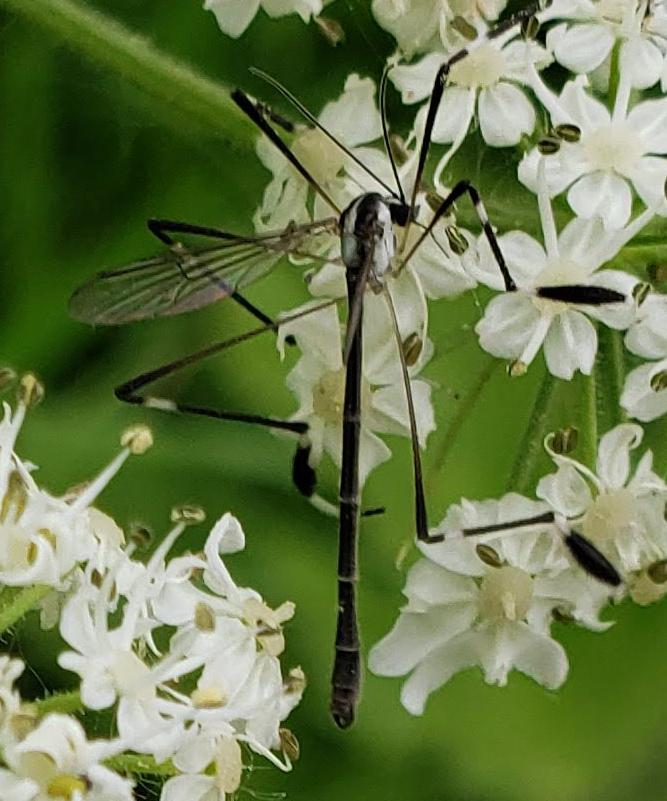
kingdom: Animalia
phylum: Arthropoda
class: Insecta
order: Diptera
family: Ptychopteridae
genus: Bittacomorpha
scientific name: Bittacomorpha clavipes
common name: Eastern phantom crane fly
